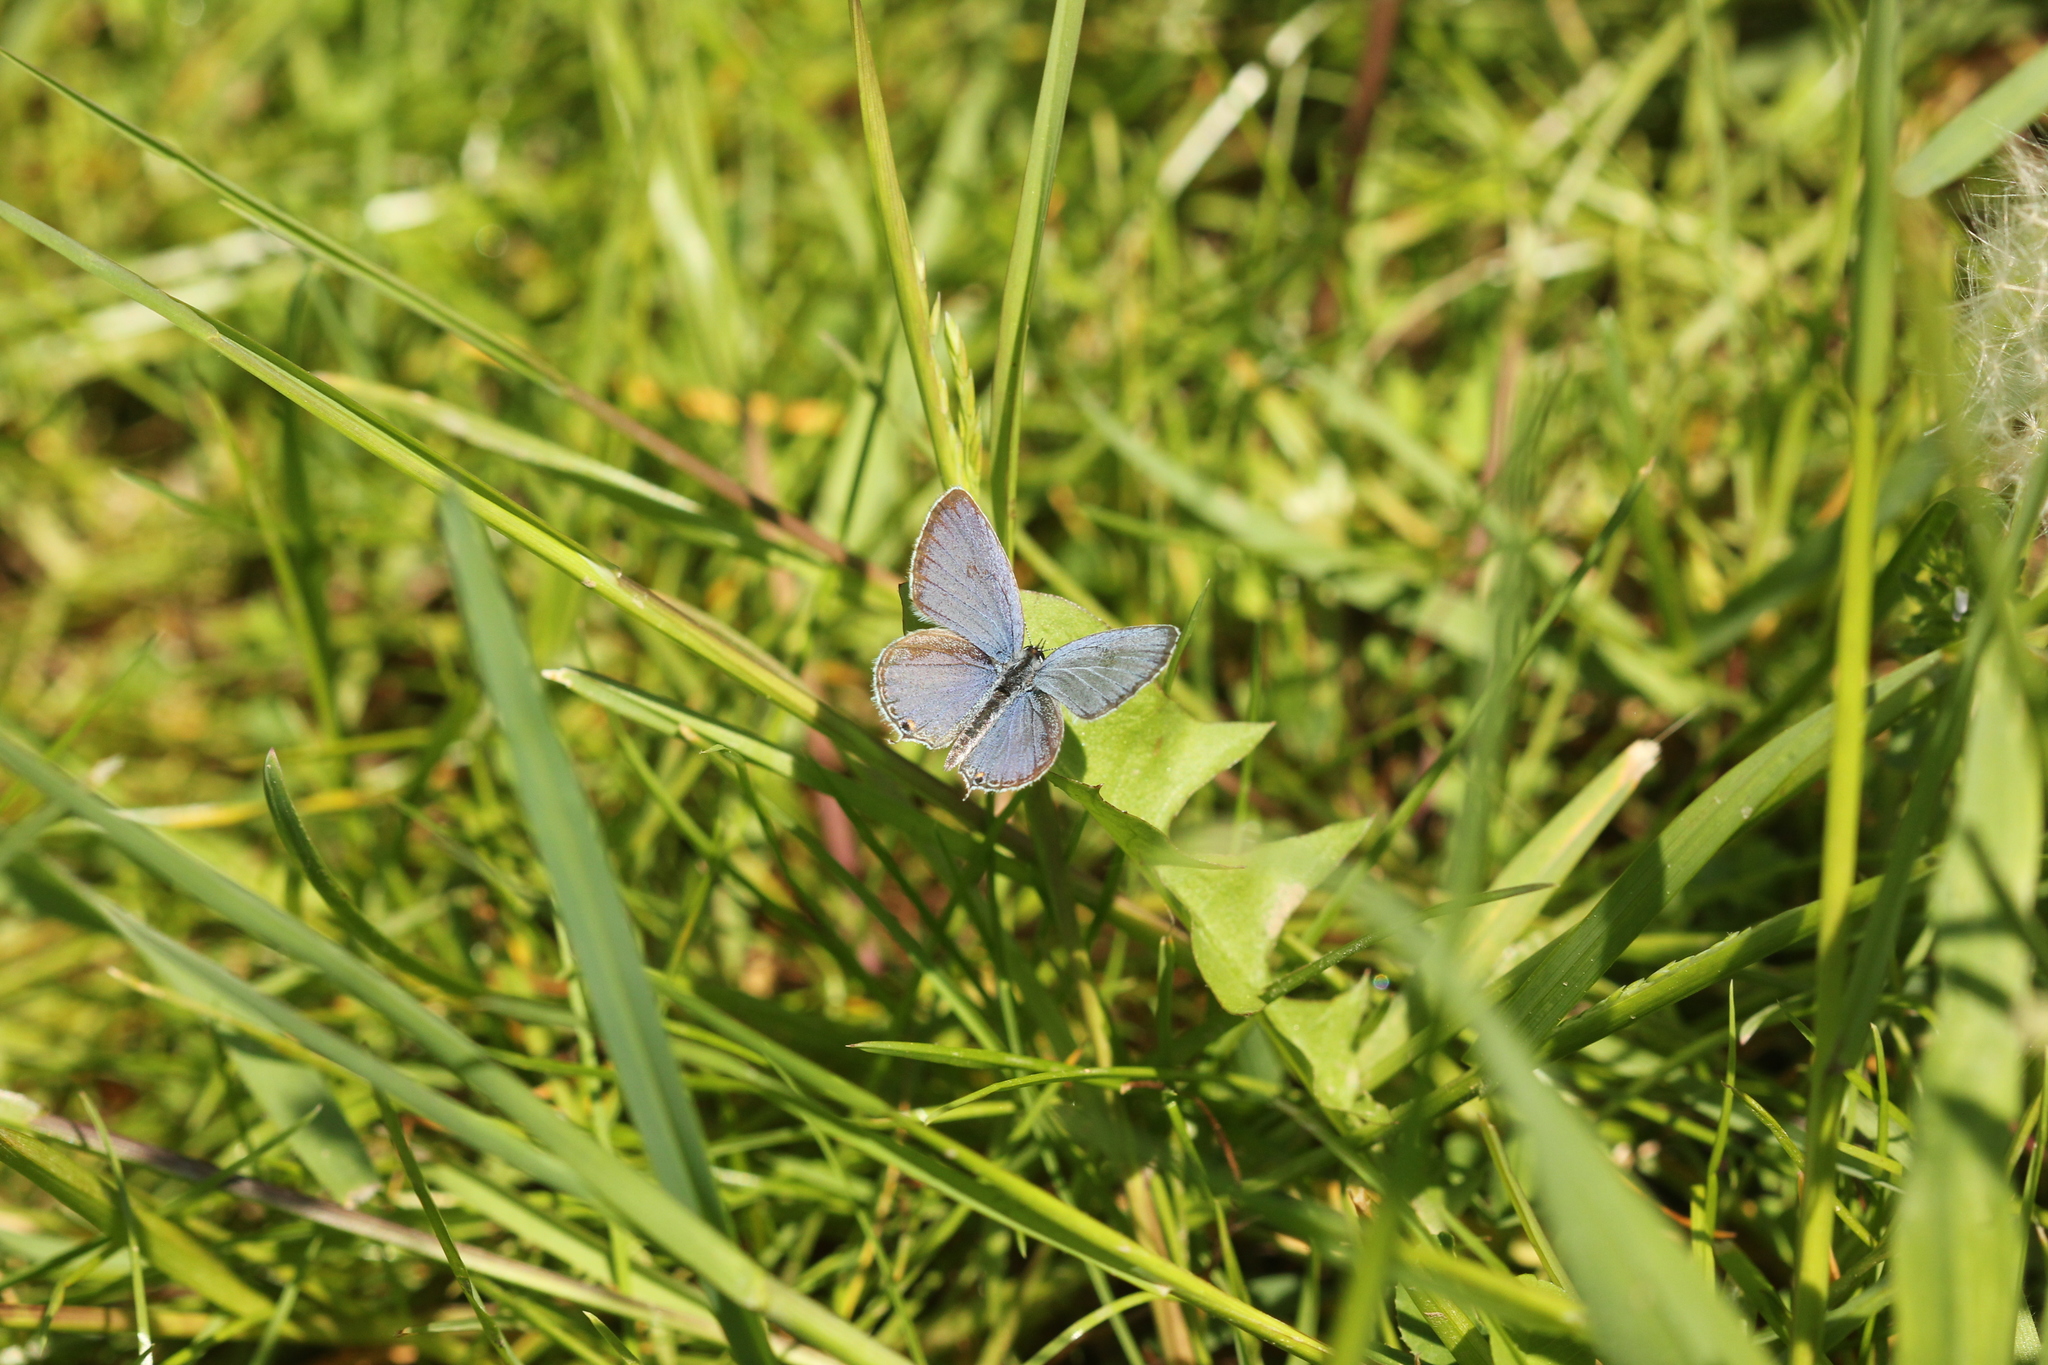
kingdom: Animalia
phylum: Arthropoda
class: Insecta
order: Lepidoptera
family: Lycaenidae
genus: Elkalyce
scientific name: Elkalyce comyntas
